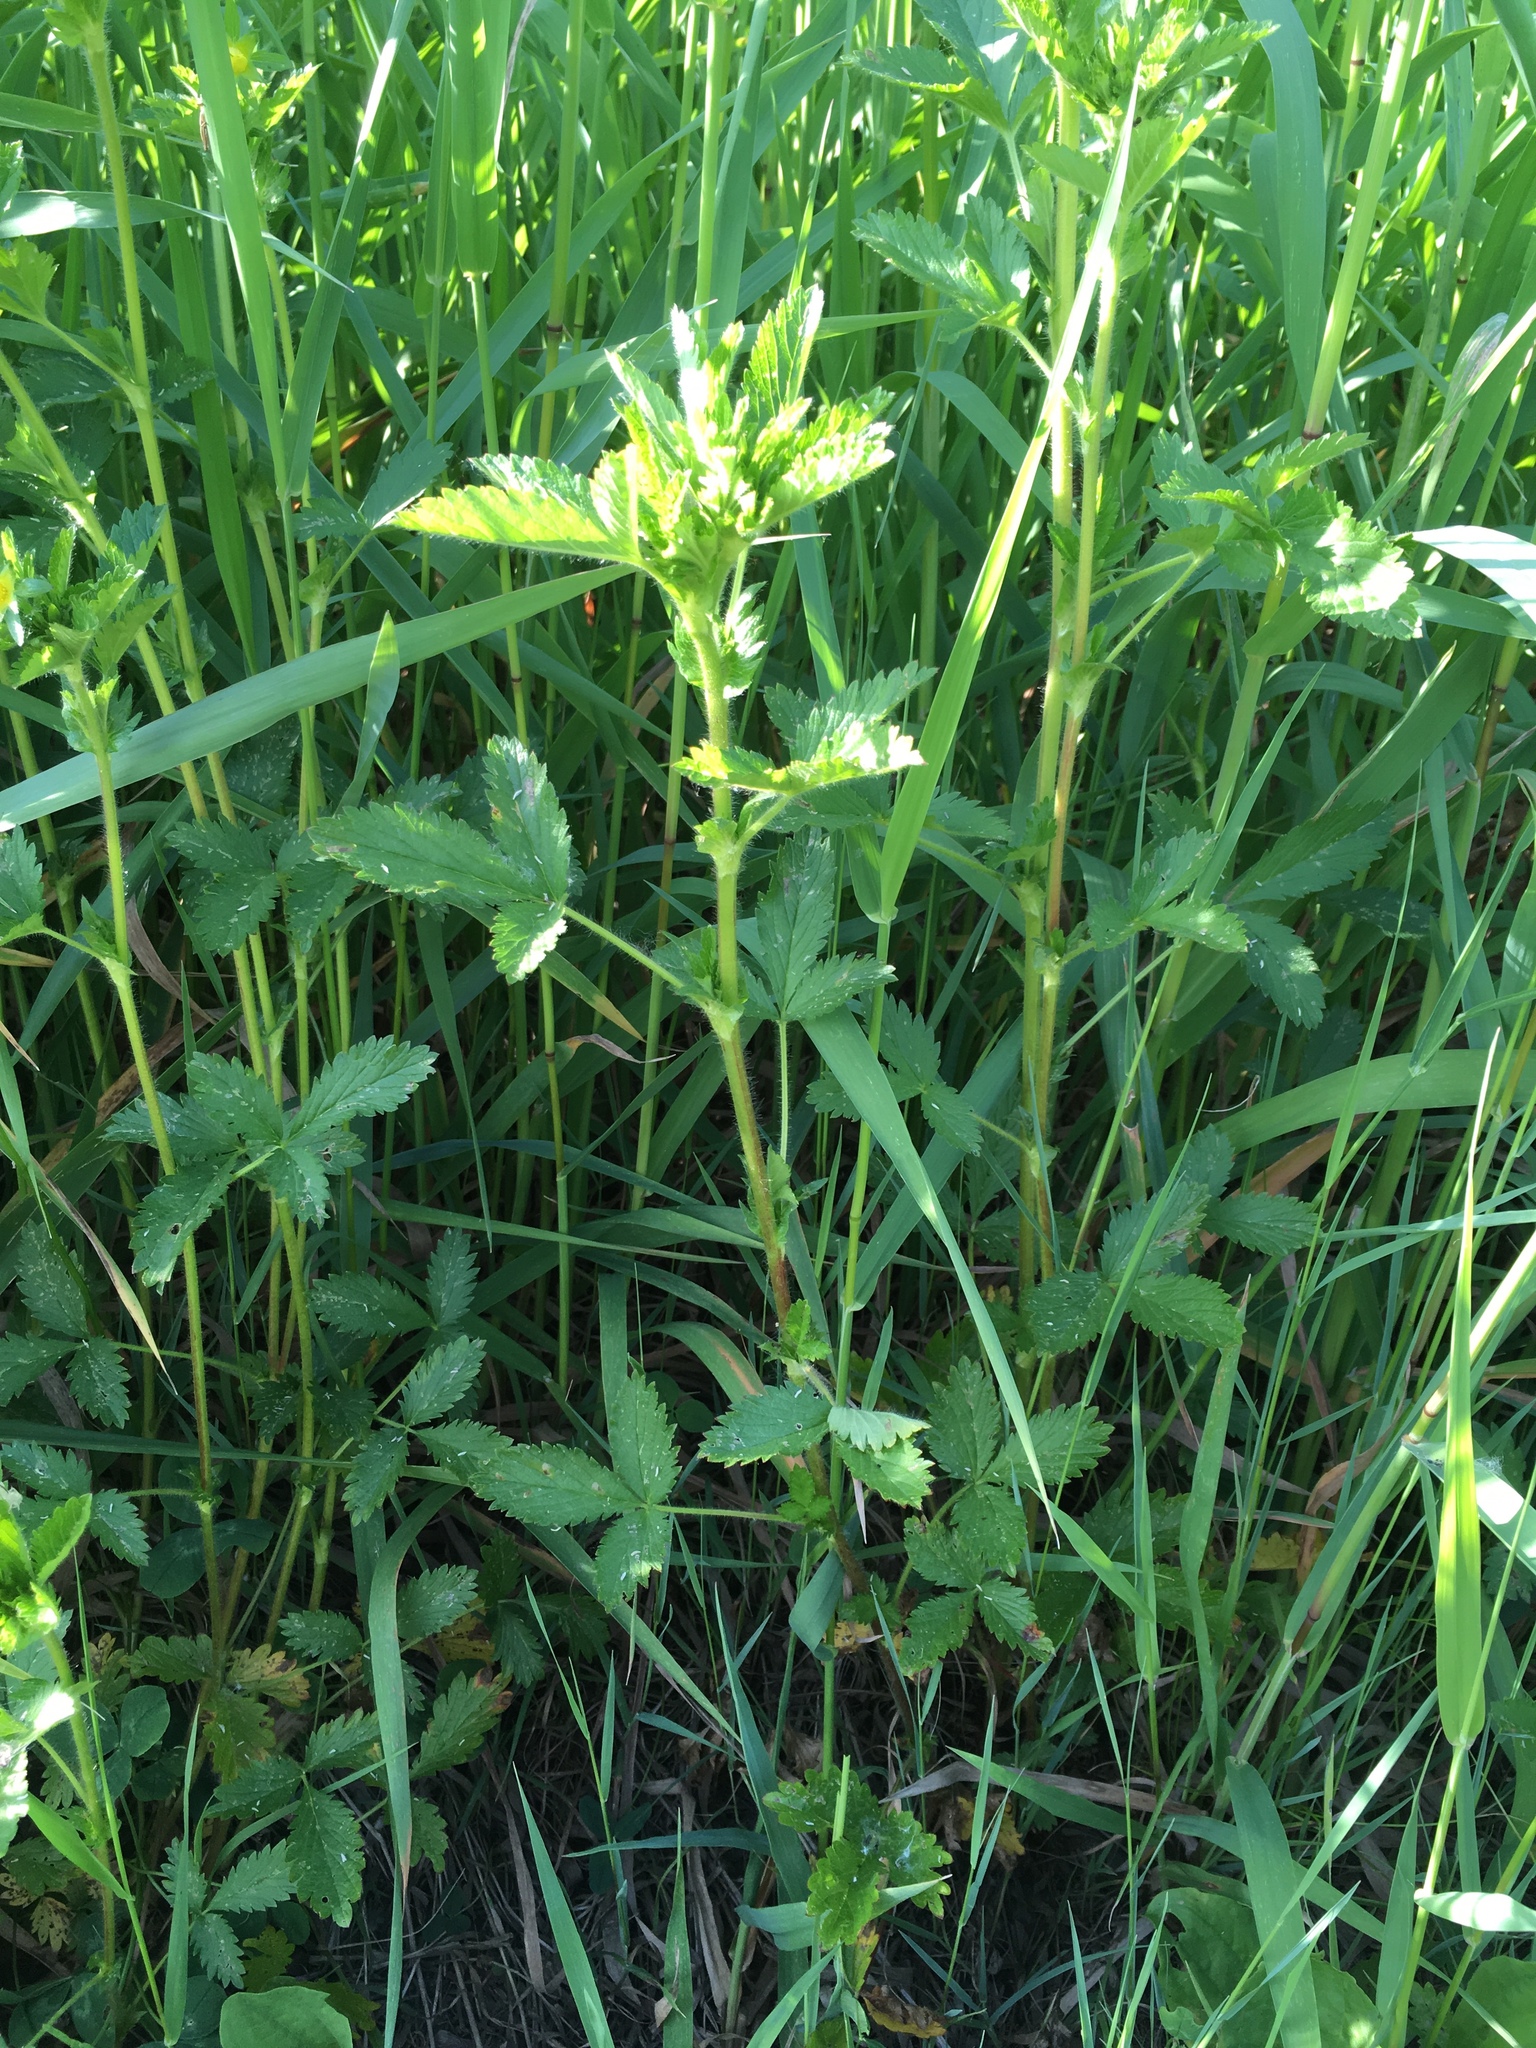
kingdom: Plantae
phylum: Tracheophyta
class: Magnoliopsida
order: Rosales
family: Rosaceae
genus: Potentilla
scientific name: Potentilla norvegica
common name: Ternate-leaved cinquefoil
